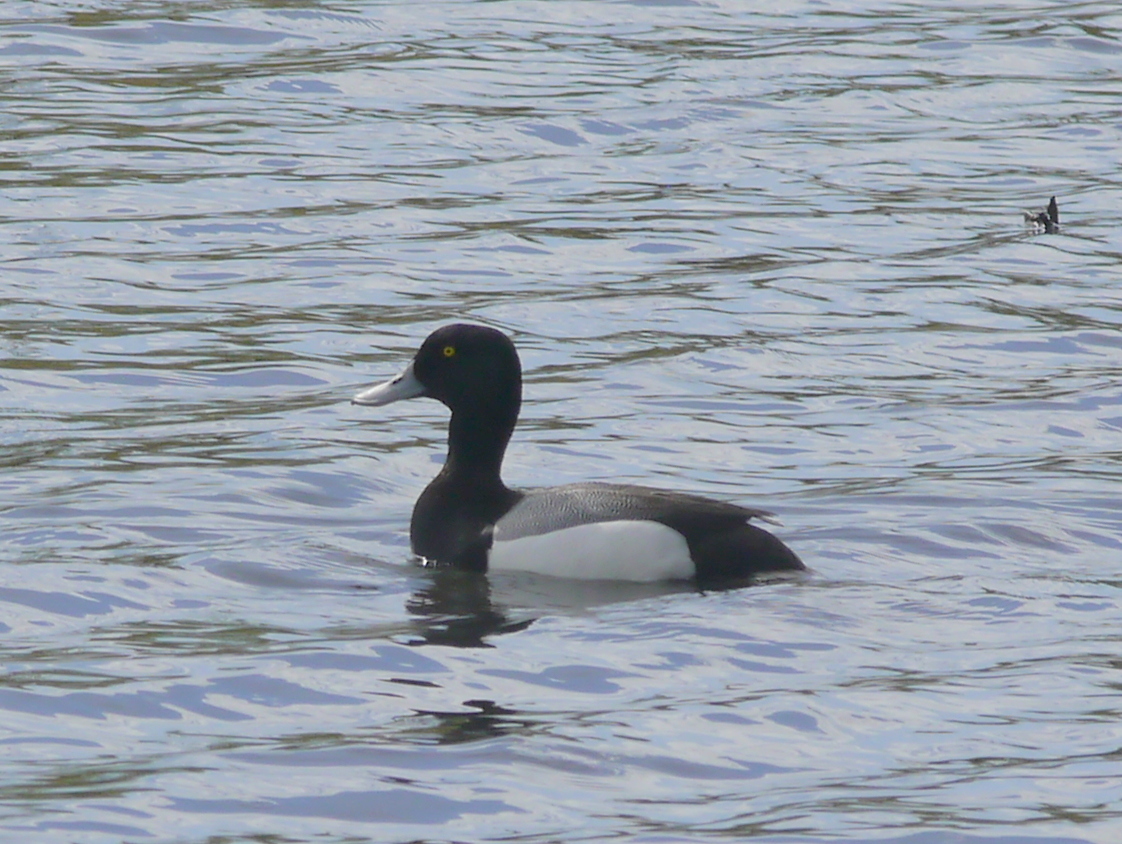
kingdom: Animalia
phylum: Chordata
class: Aves
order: Anseriformes
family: Anatidae
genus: Aythya
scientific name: Aythya marila
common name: Greater scaup
